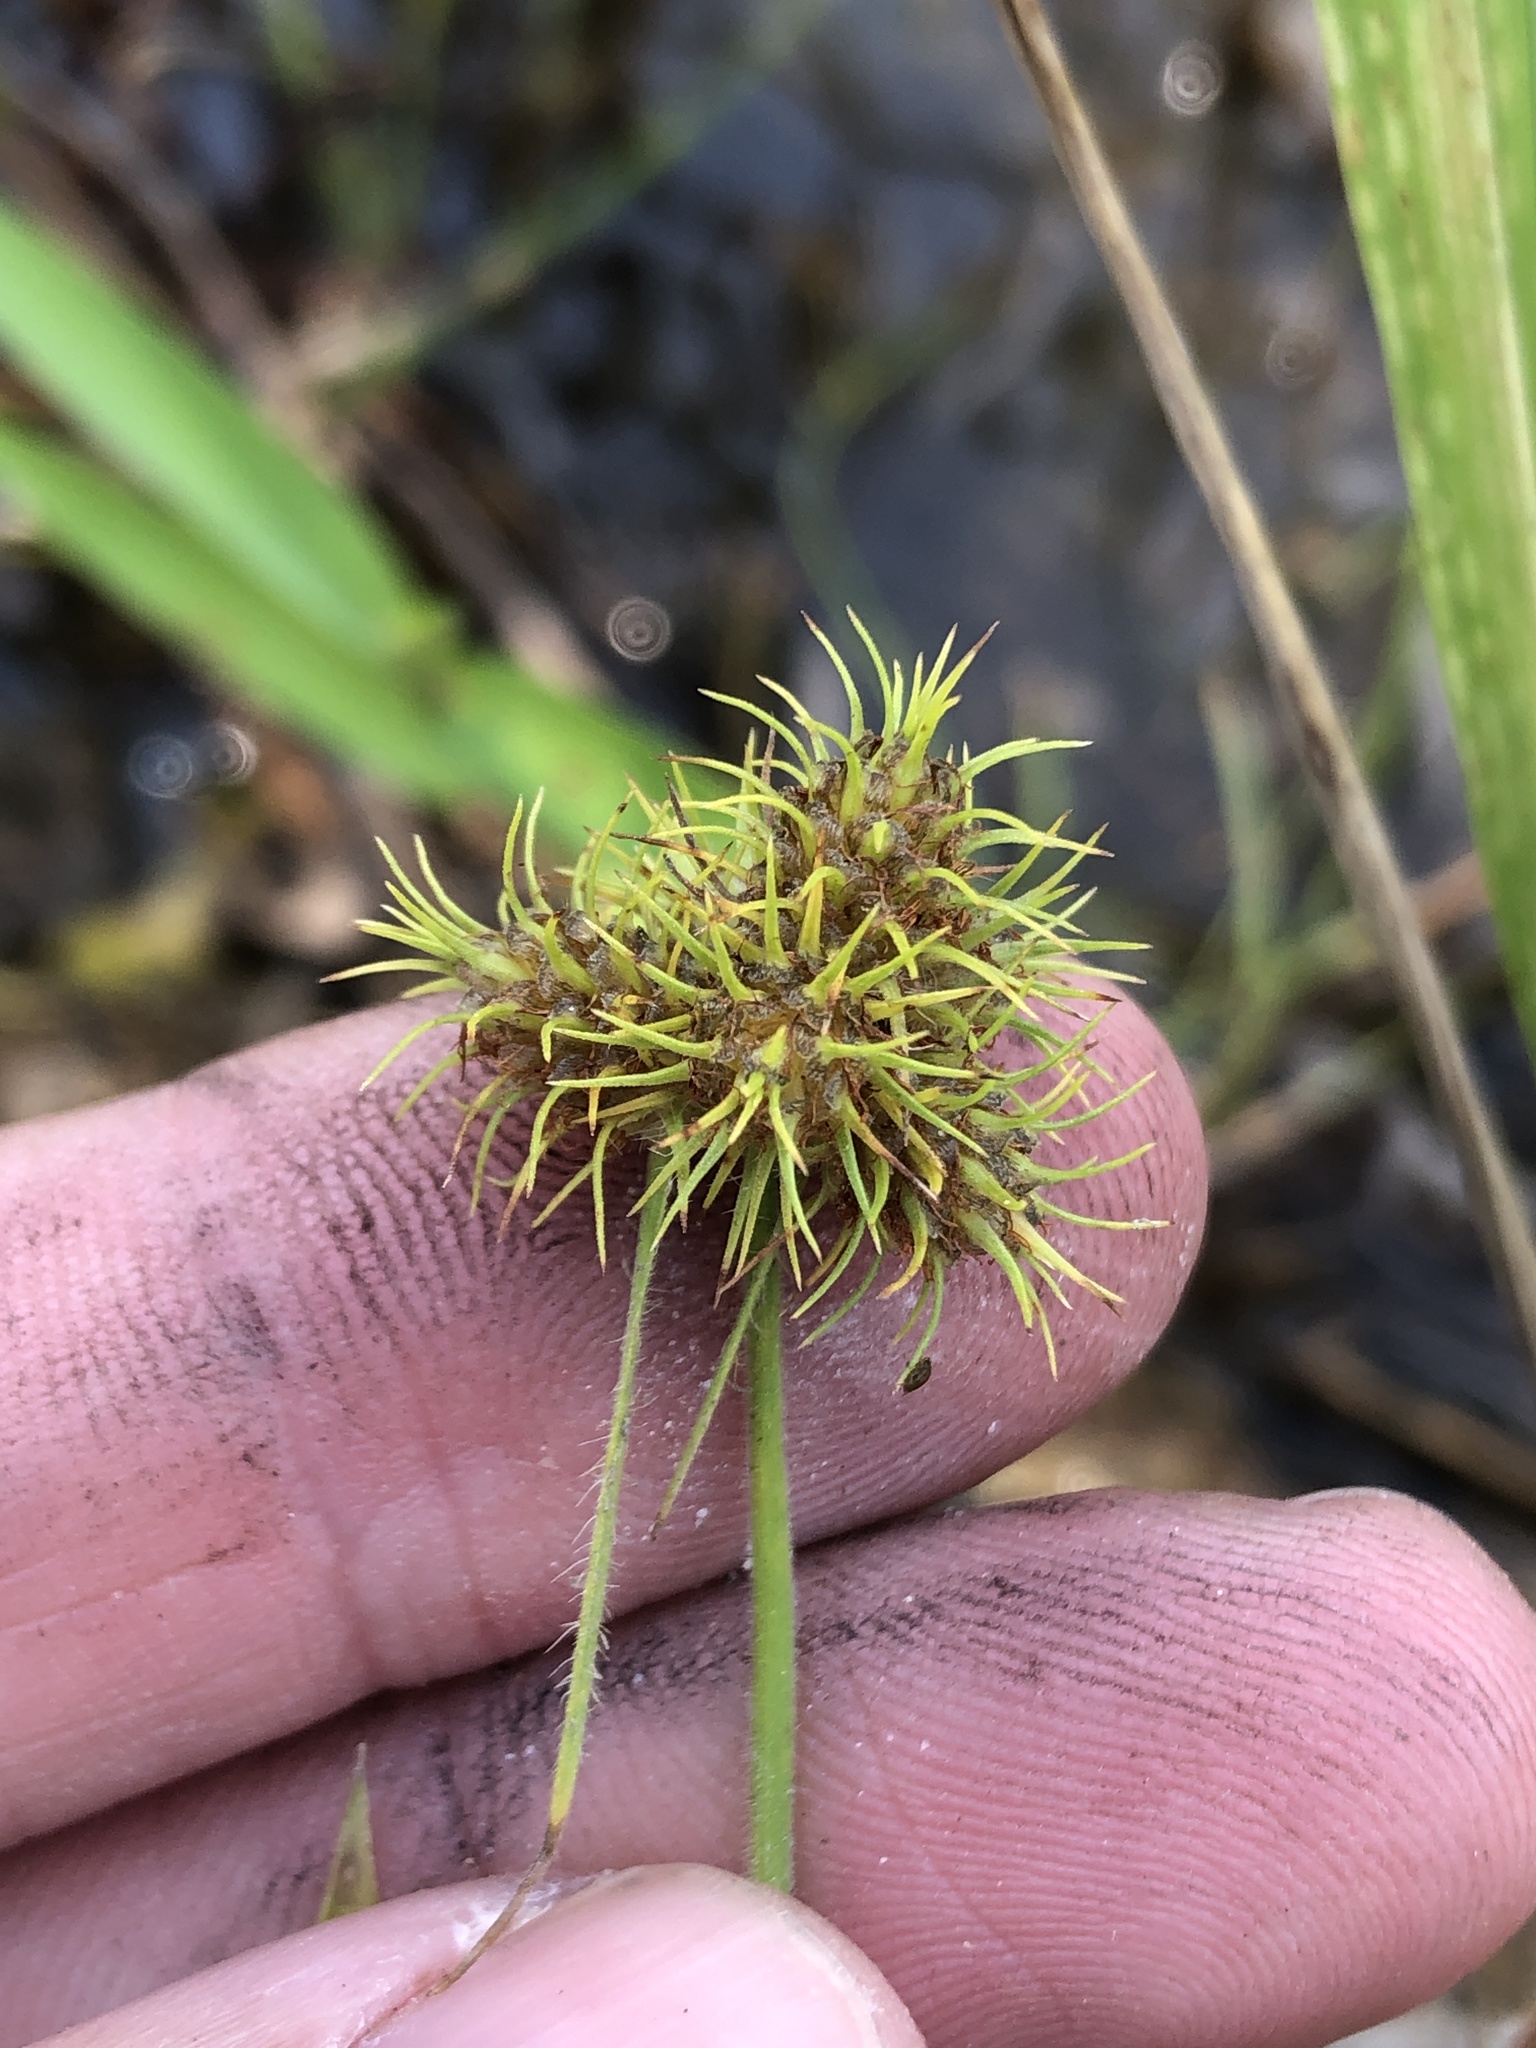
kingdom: Plantae
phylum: Tracheophyta
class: Liliopsida
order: Poales
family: Cyperaceae
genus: Fuirena
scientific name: Fuirena simplex
